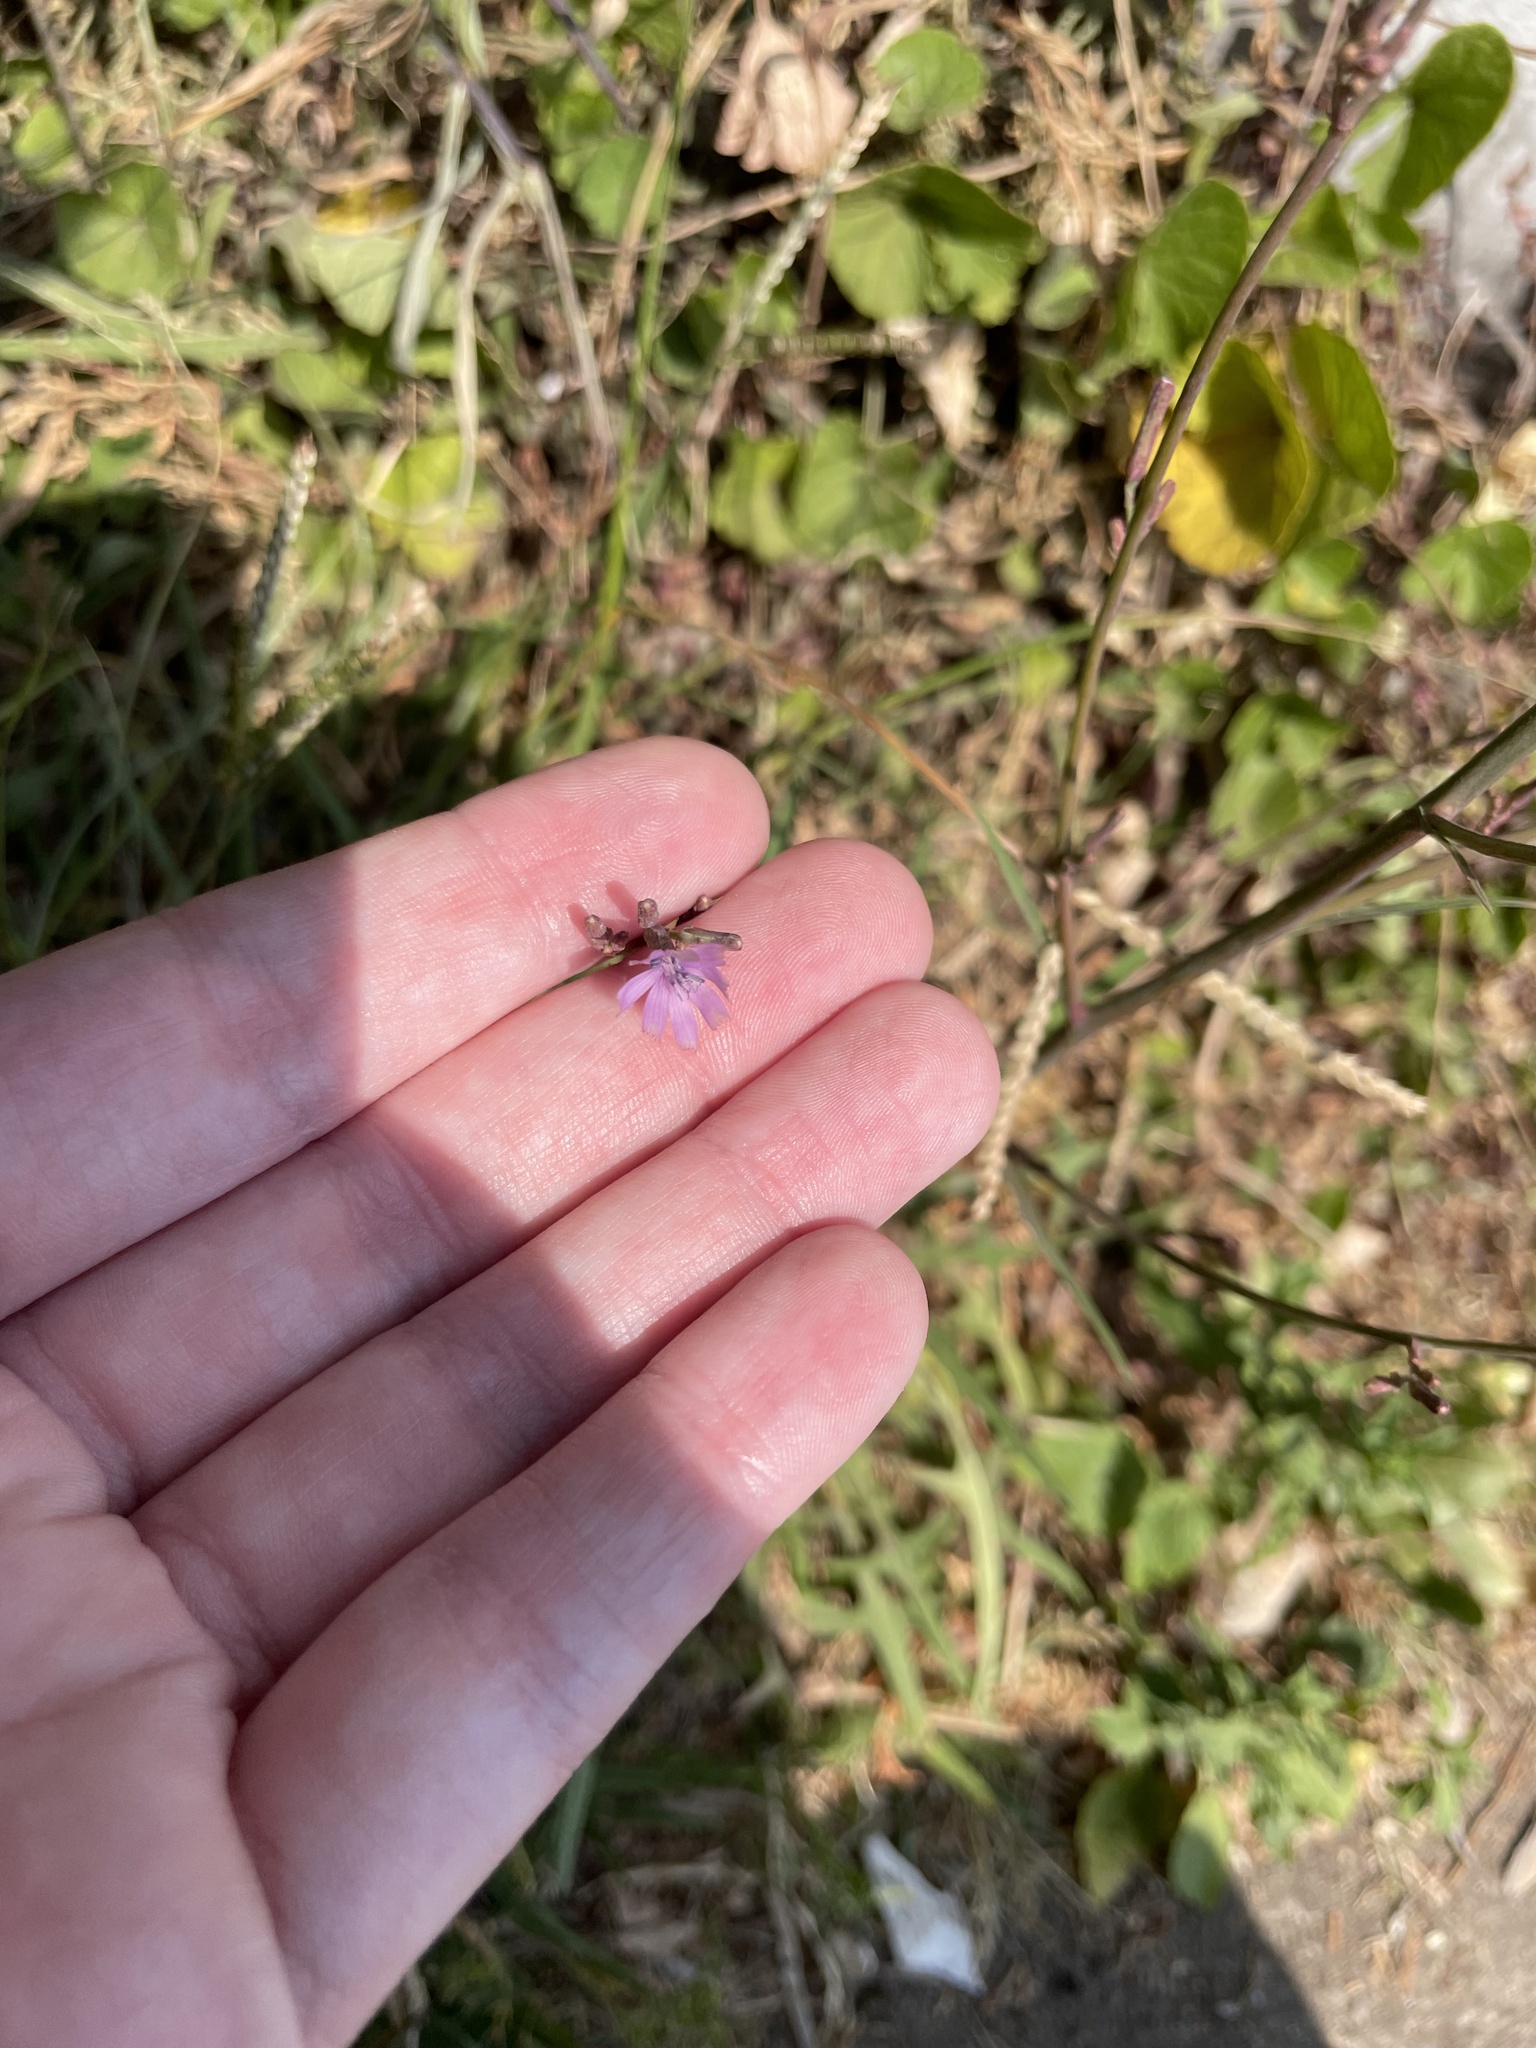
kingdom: Plantae
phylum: Tracheophyta
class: Magnoliopsida
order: Asterales
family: Asteraceae
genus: Lactuca
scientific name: Lactuca inermis
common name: Wild lettuce
